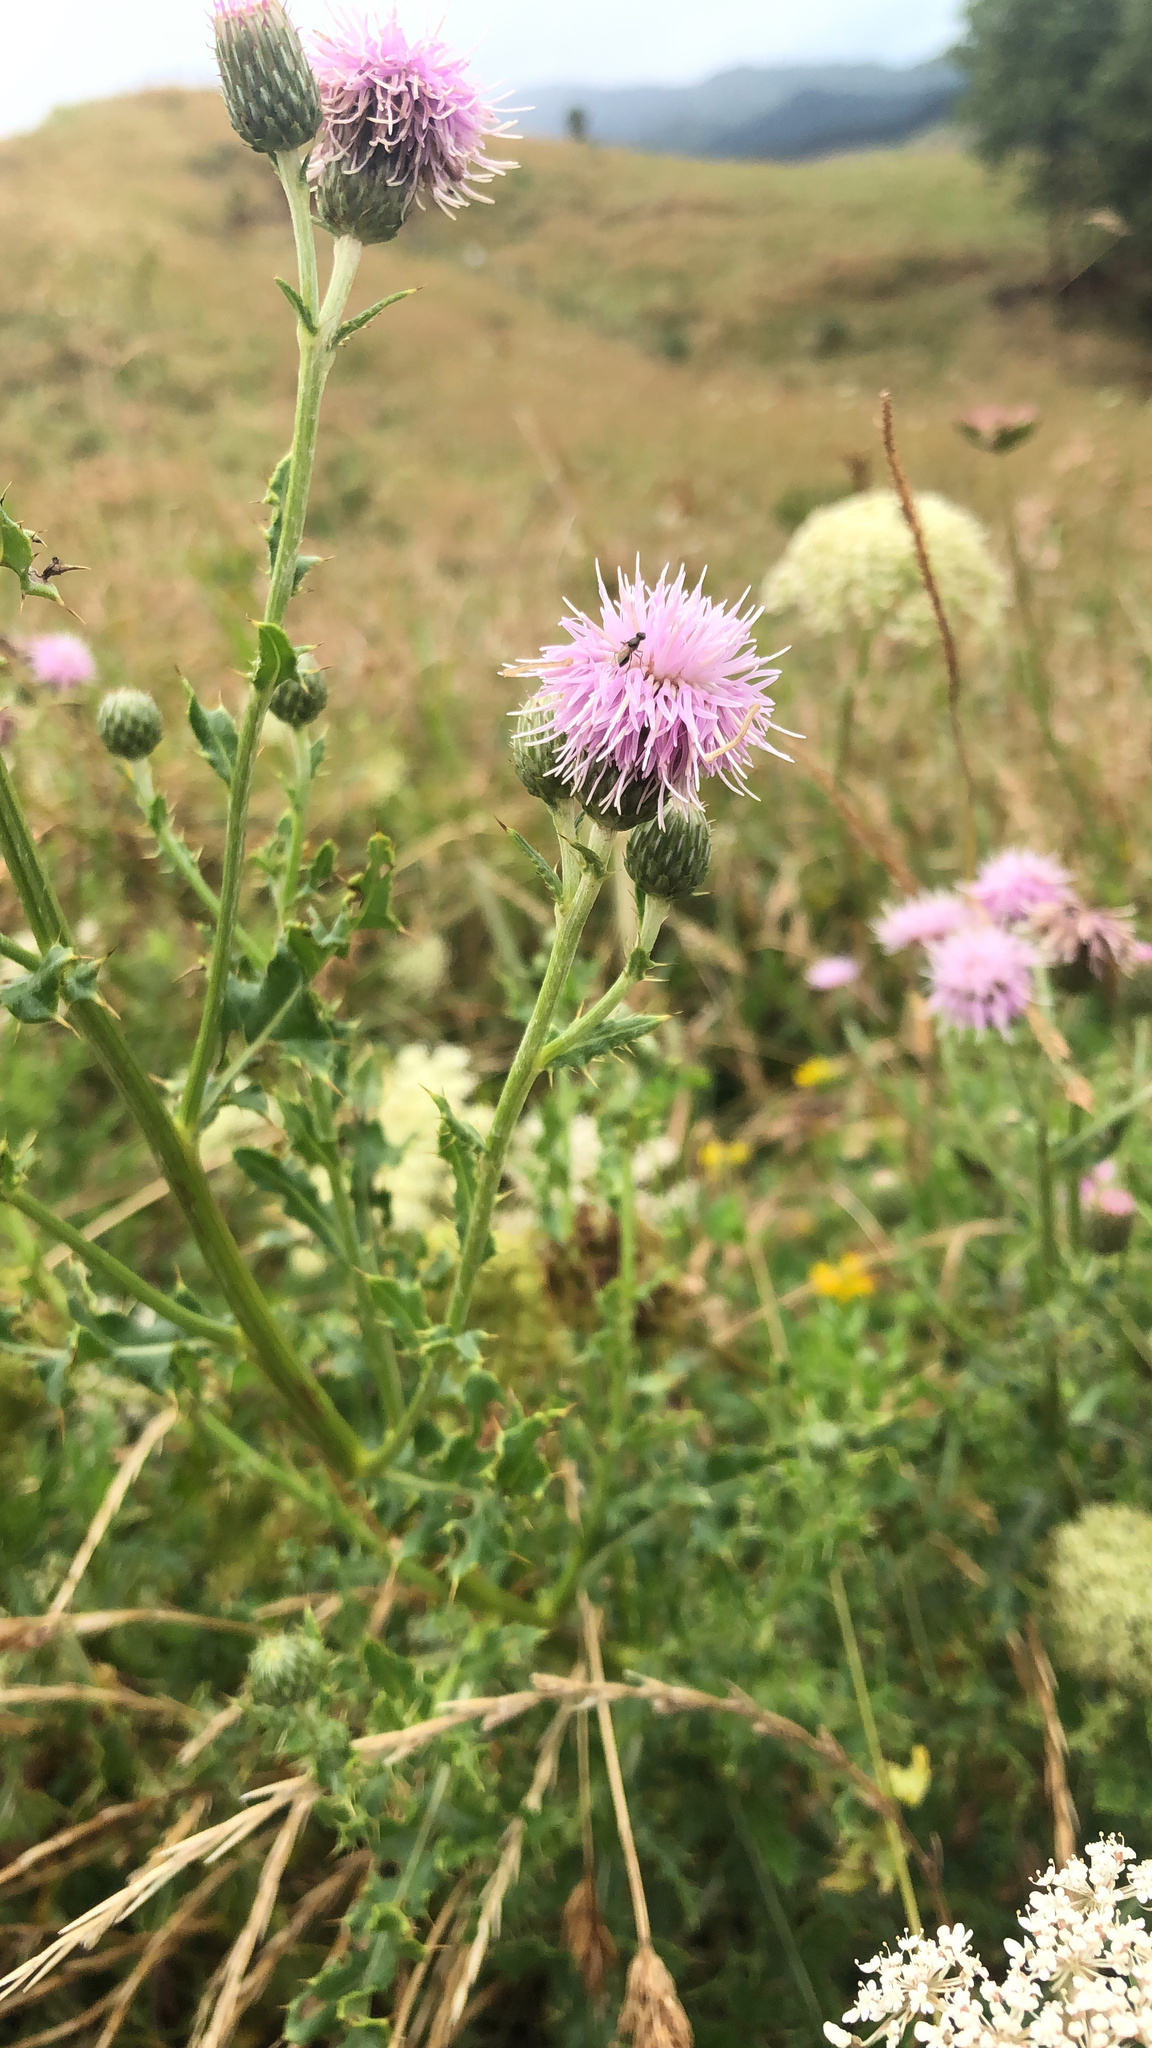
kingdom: Plantae
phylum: Tracheophyta
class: Magnoliopsida
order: Asterales
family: Asteraceae
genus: Cirsium
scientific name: Cirsium arvense
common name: Creeping thistle
